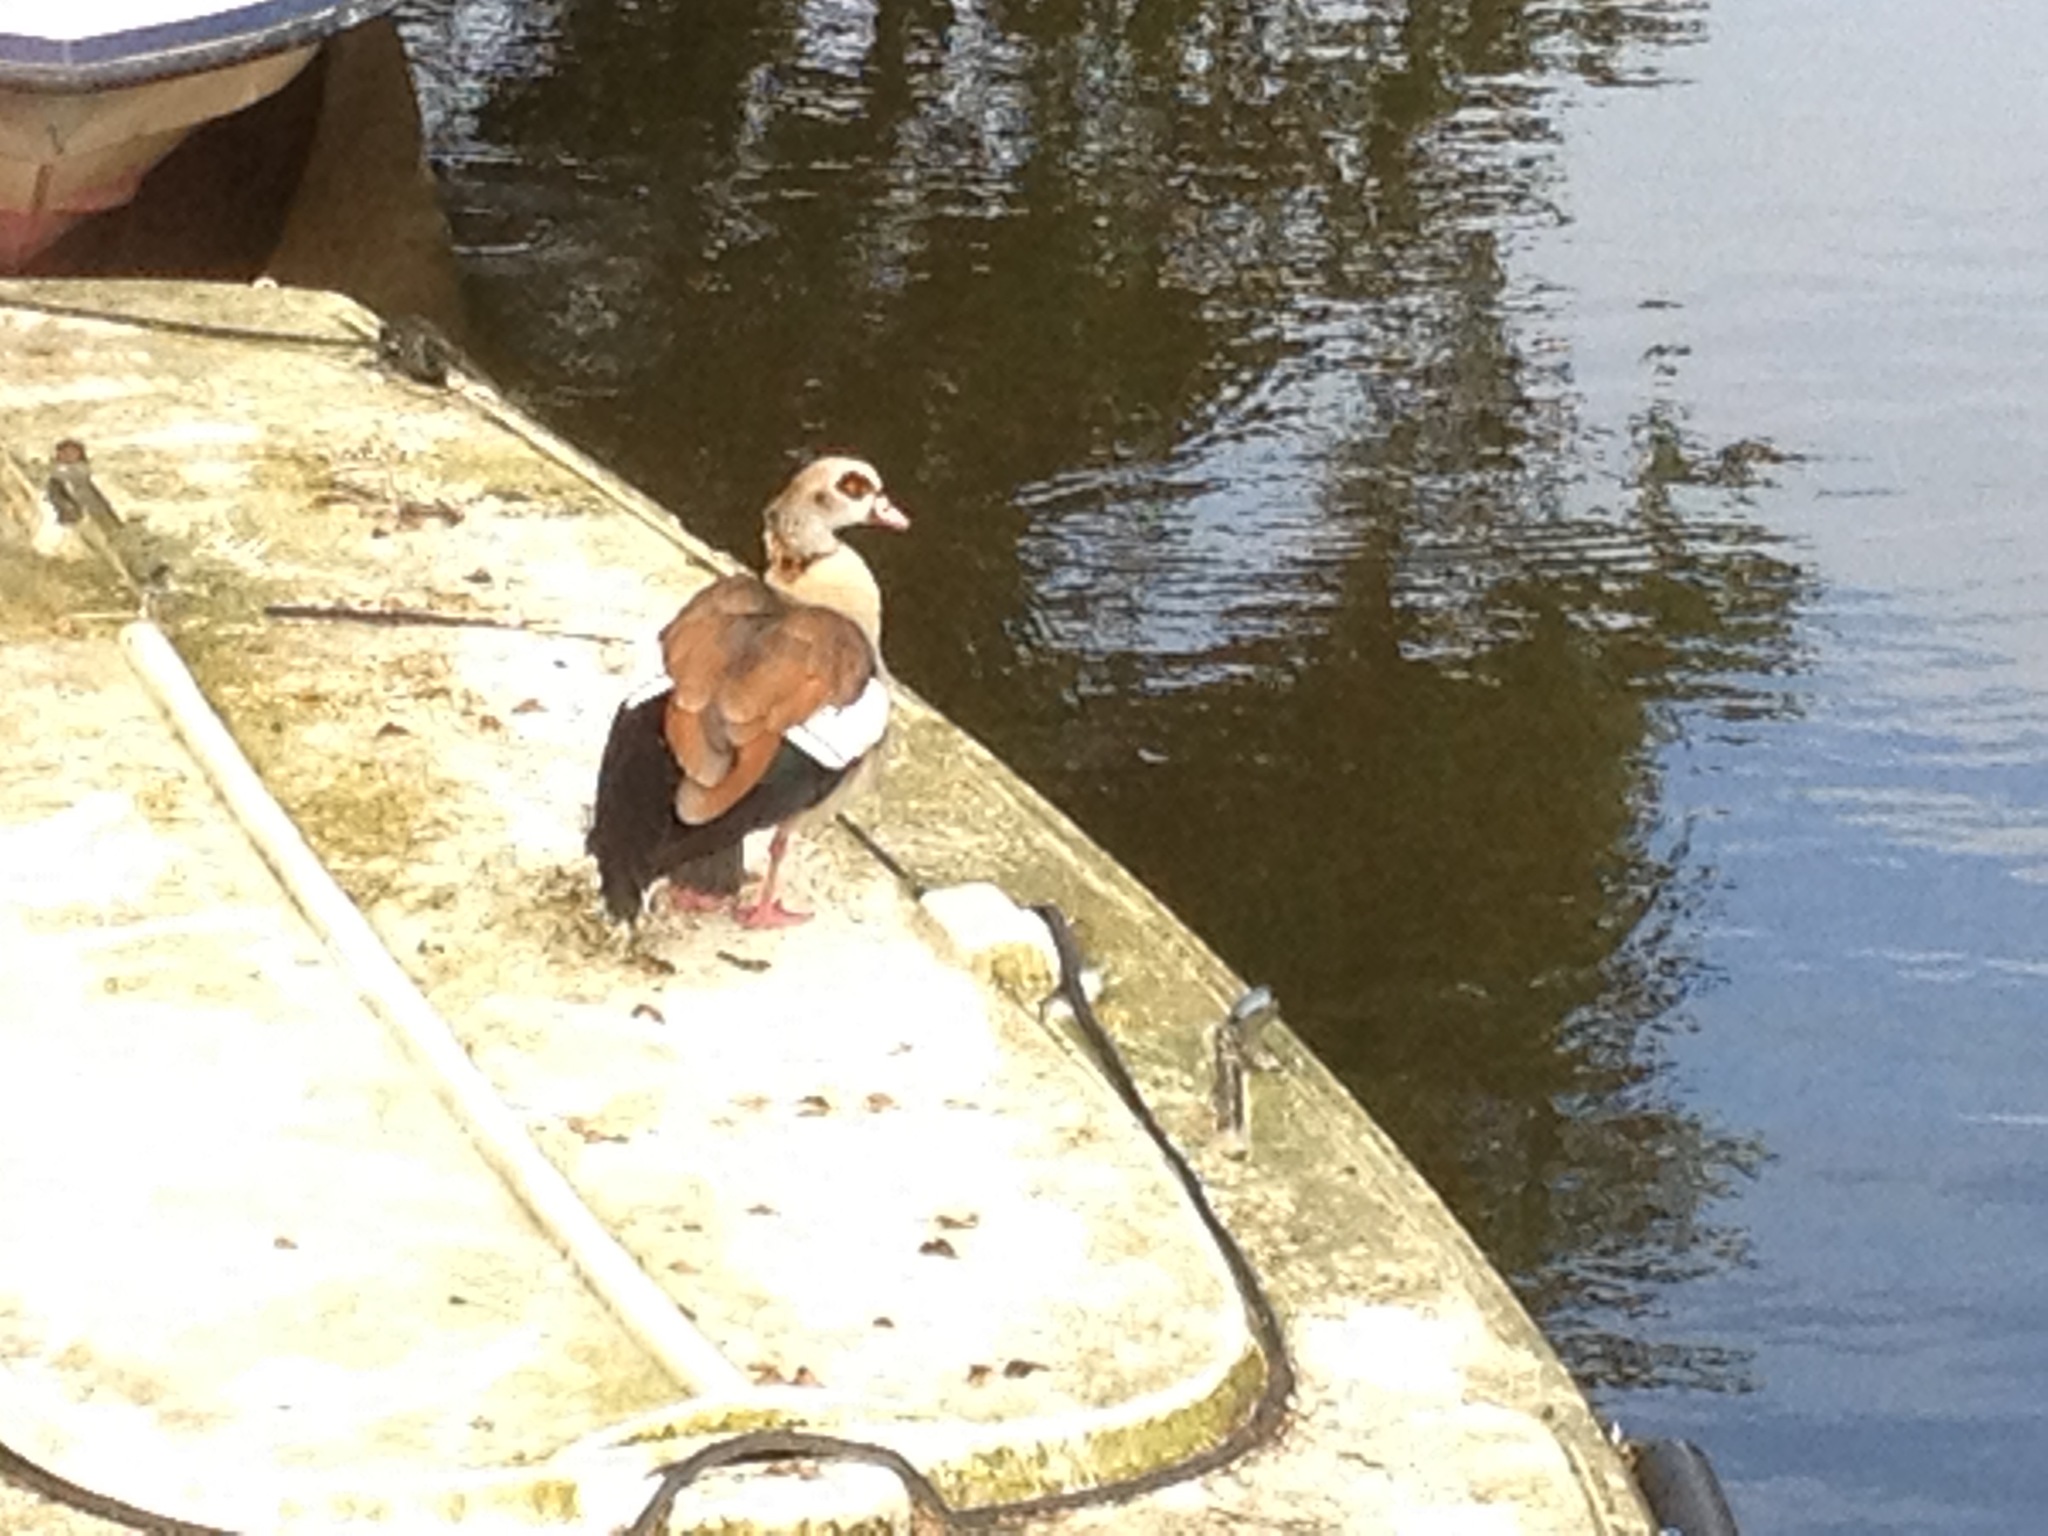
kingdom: Animalia
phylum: Chordata
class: Aves
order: Anseriformes
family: Anatidae
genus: Alopochen
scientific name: Alopochen aegyptiaca
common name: Egyptian goose
